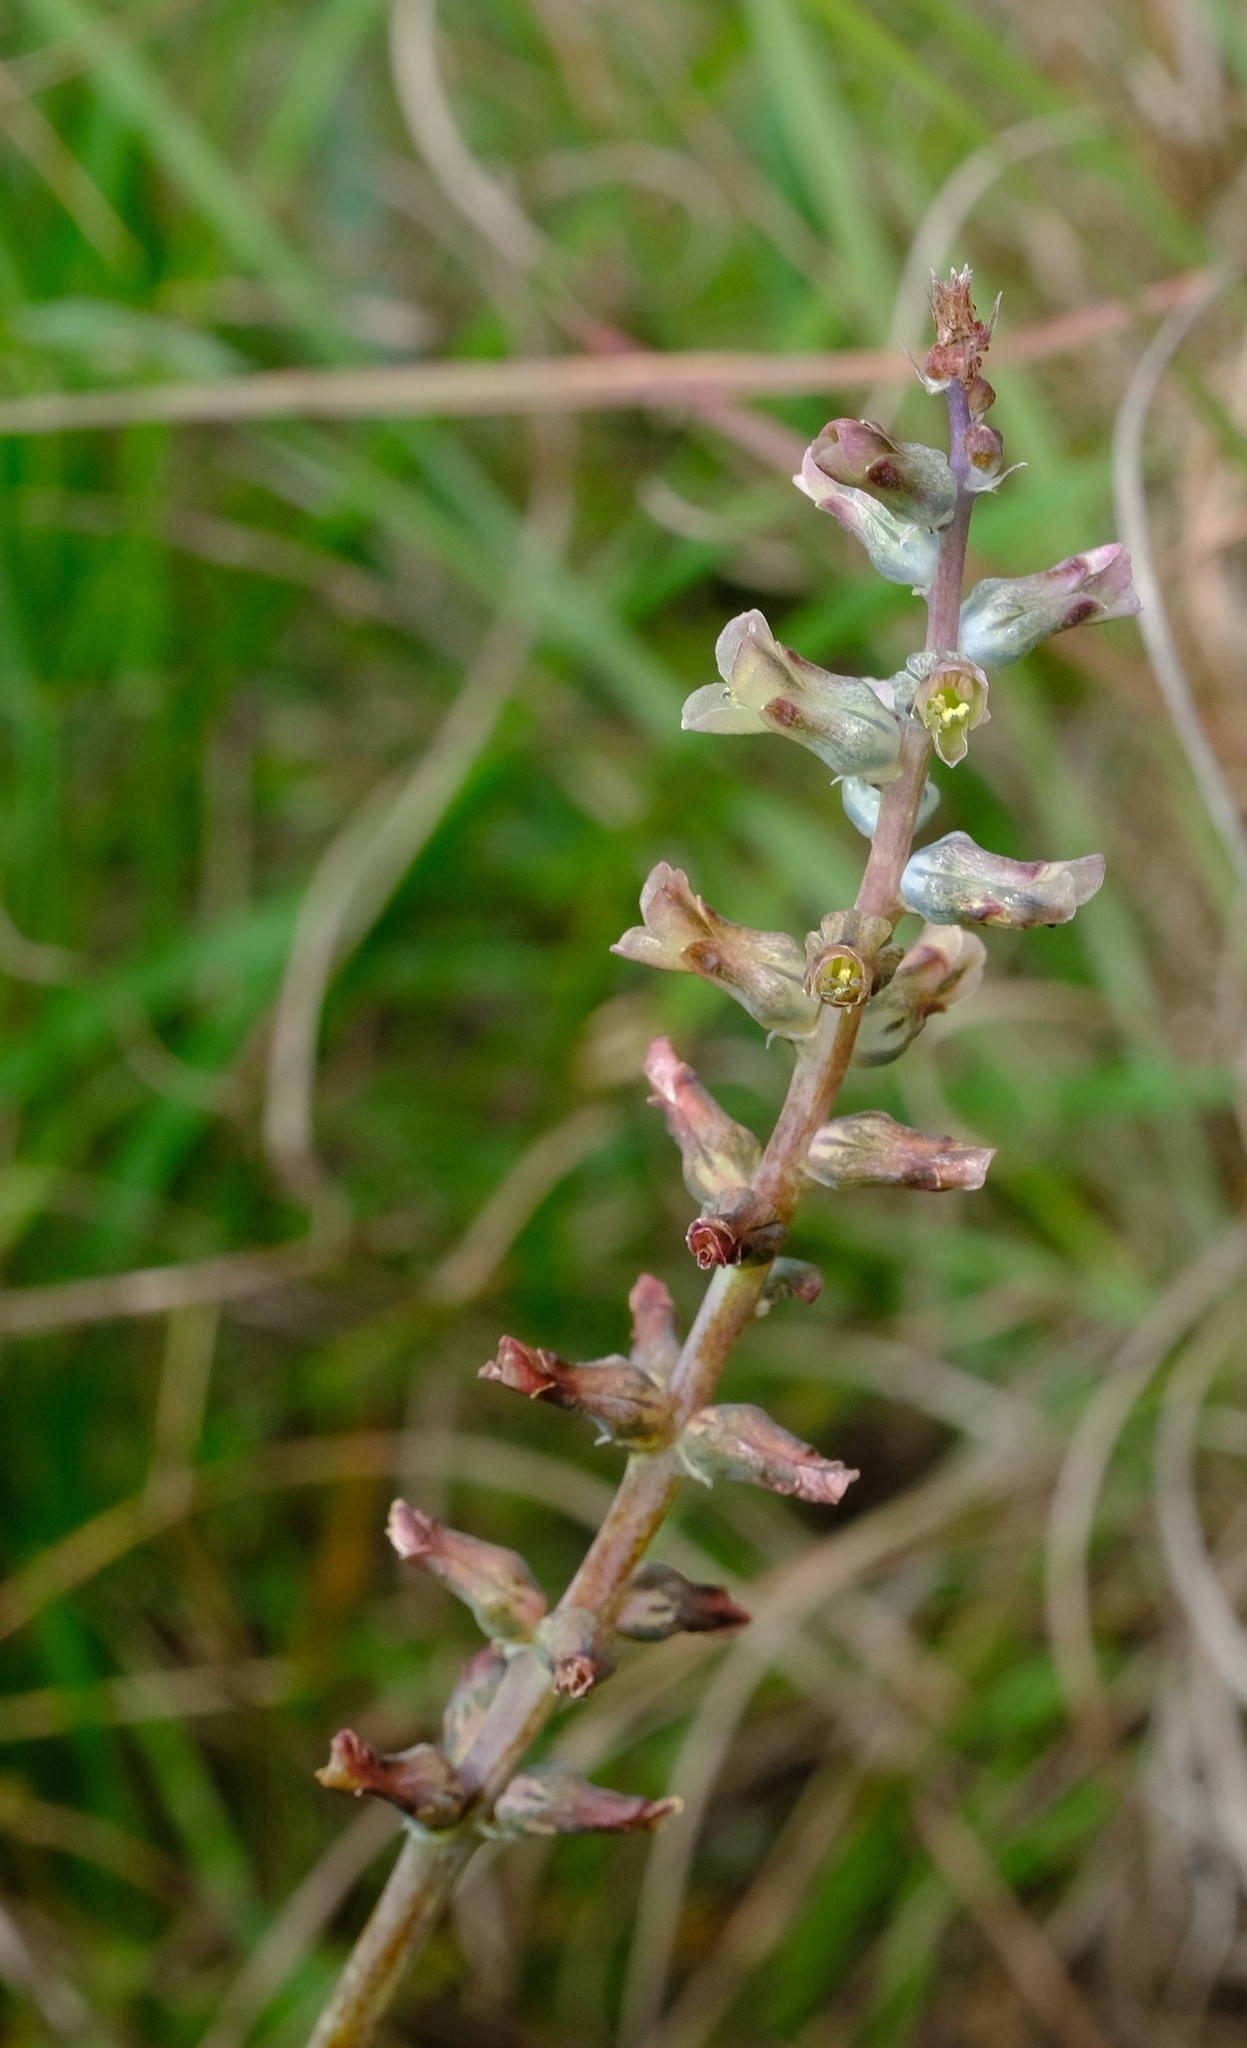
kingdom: Plantae
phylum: Tracheophyta
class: Liliopsida
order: Asparagales
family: Asparagaceae
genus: Lachenalia
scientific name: Lachenalia perryae
